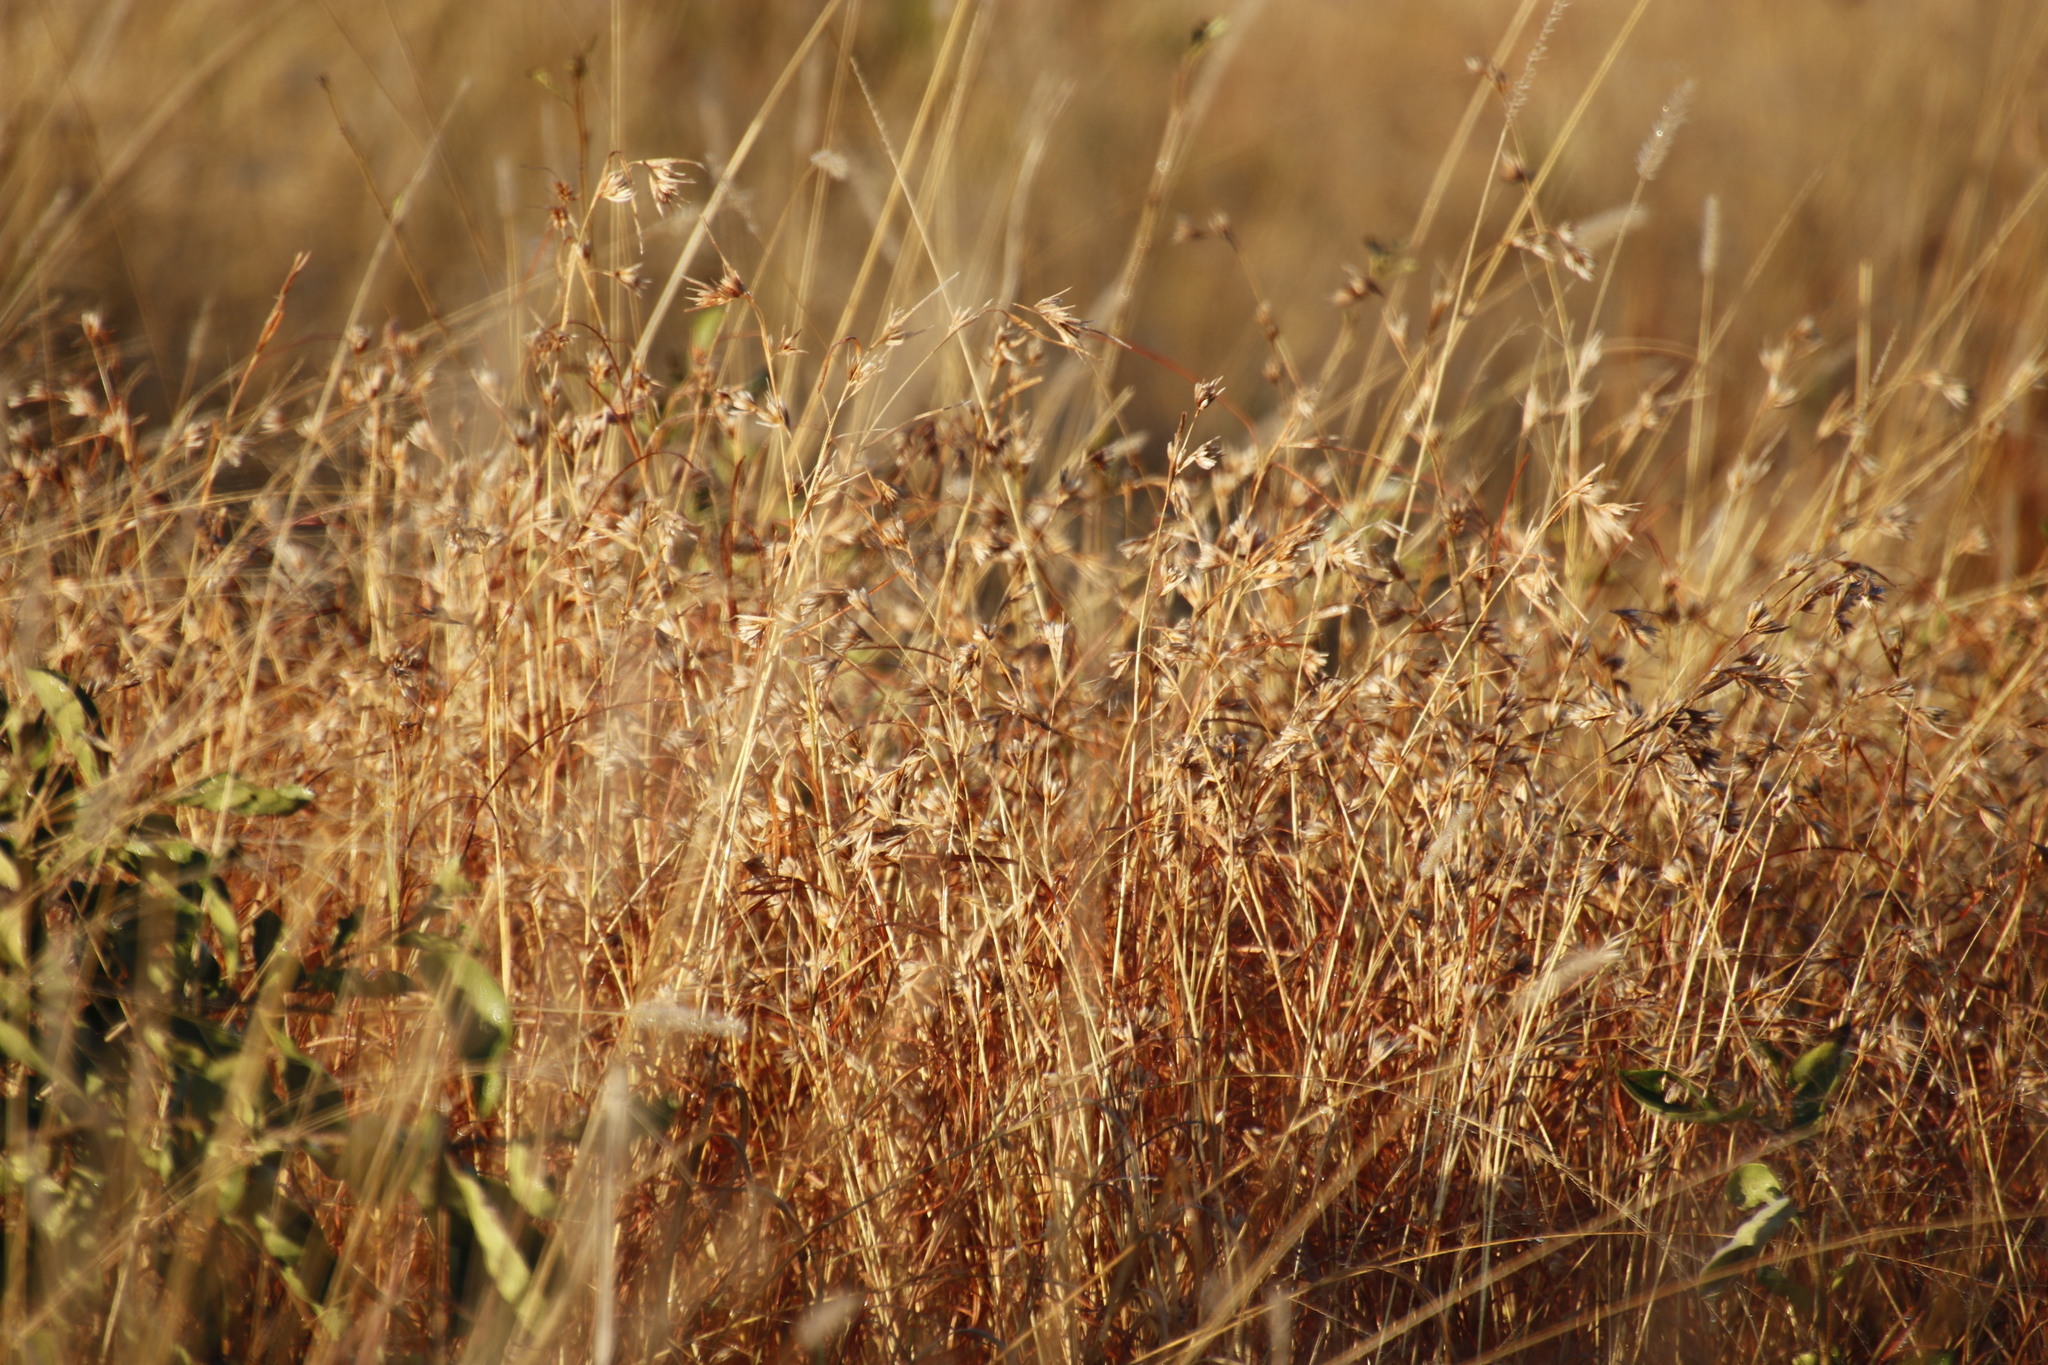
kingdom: Plantae
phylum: Tracheophyta
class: Liliopsida
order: Poales
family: Poaceae
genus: Themeda
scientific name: Themeda triandra
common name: Kangaroo grass
